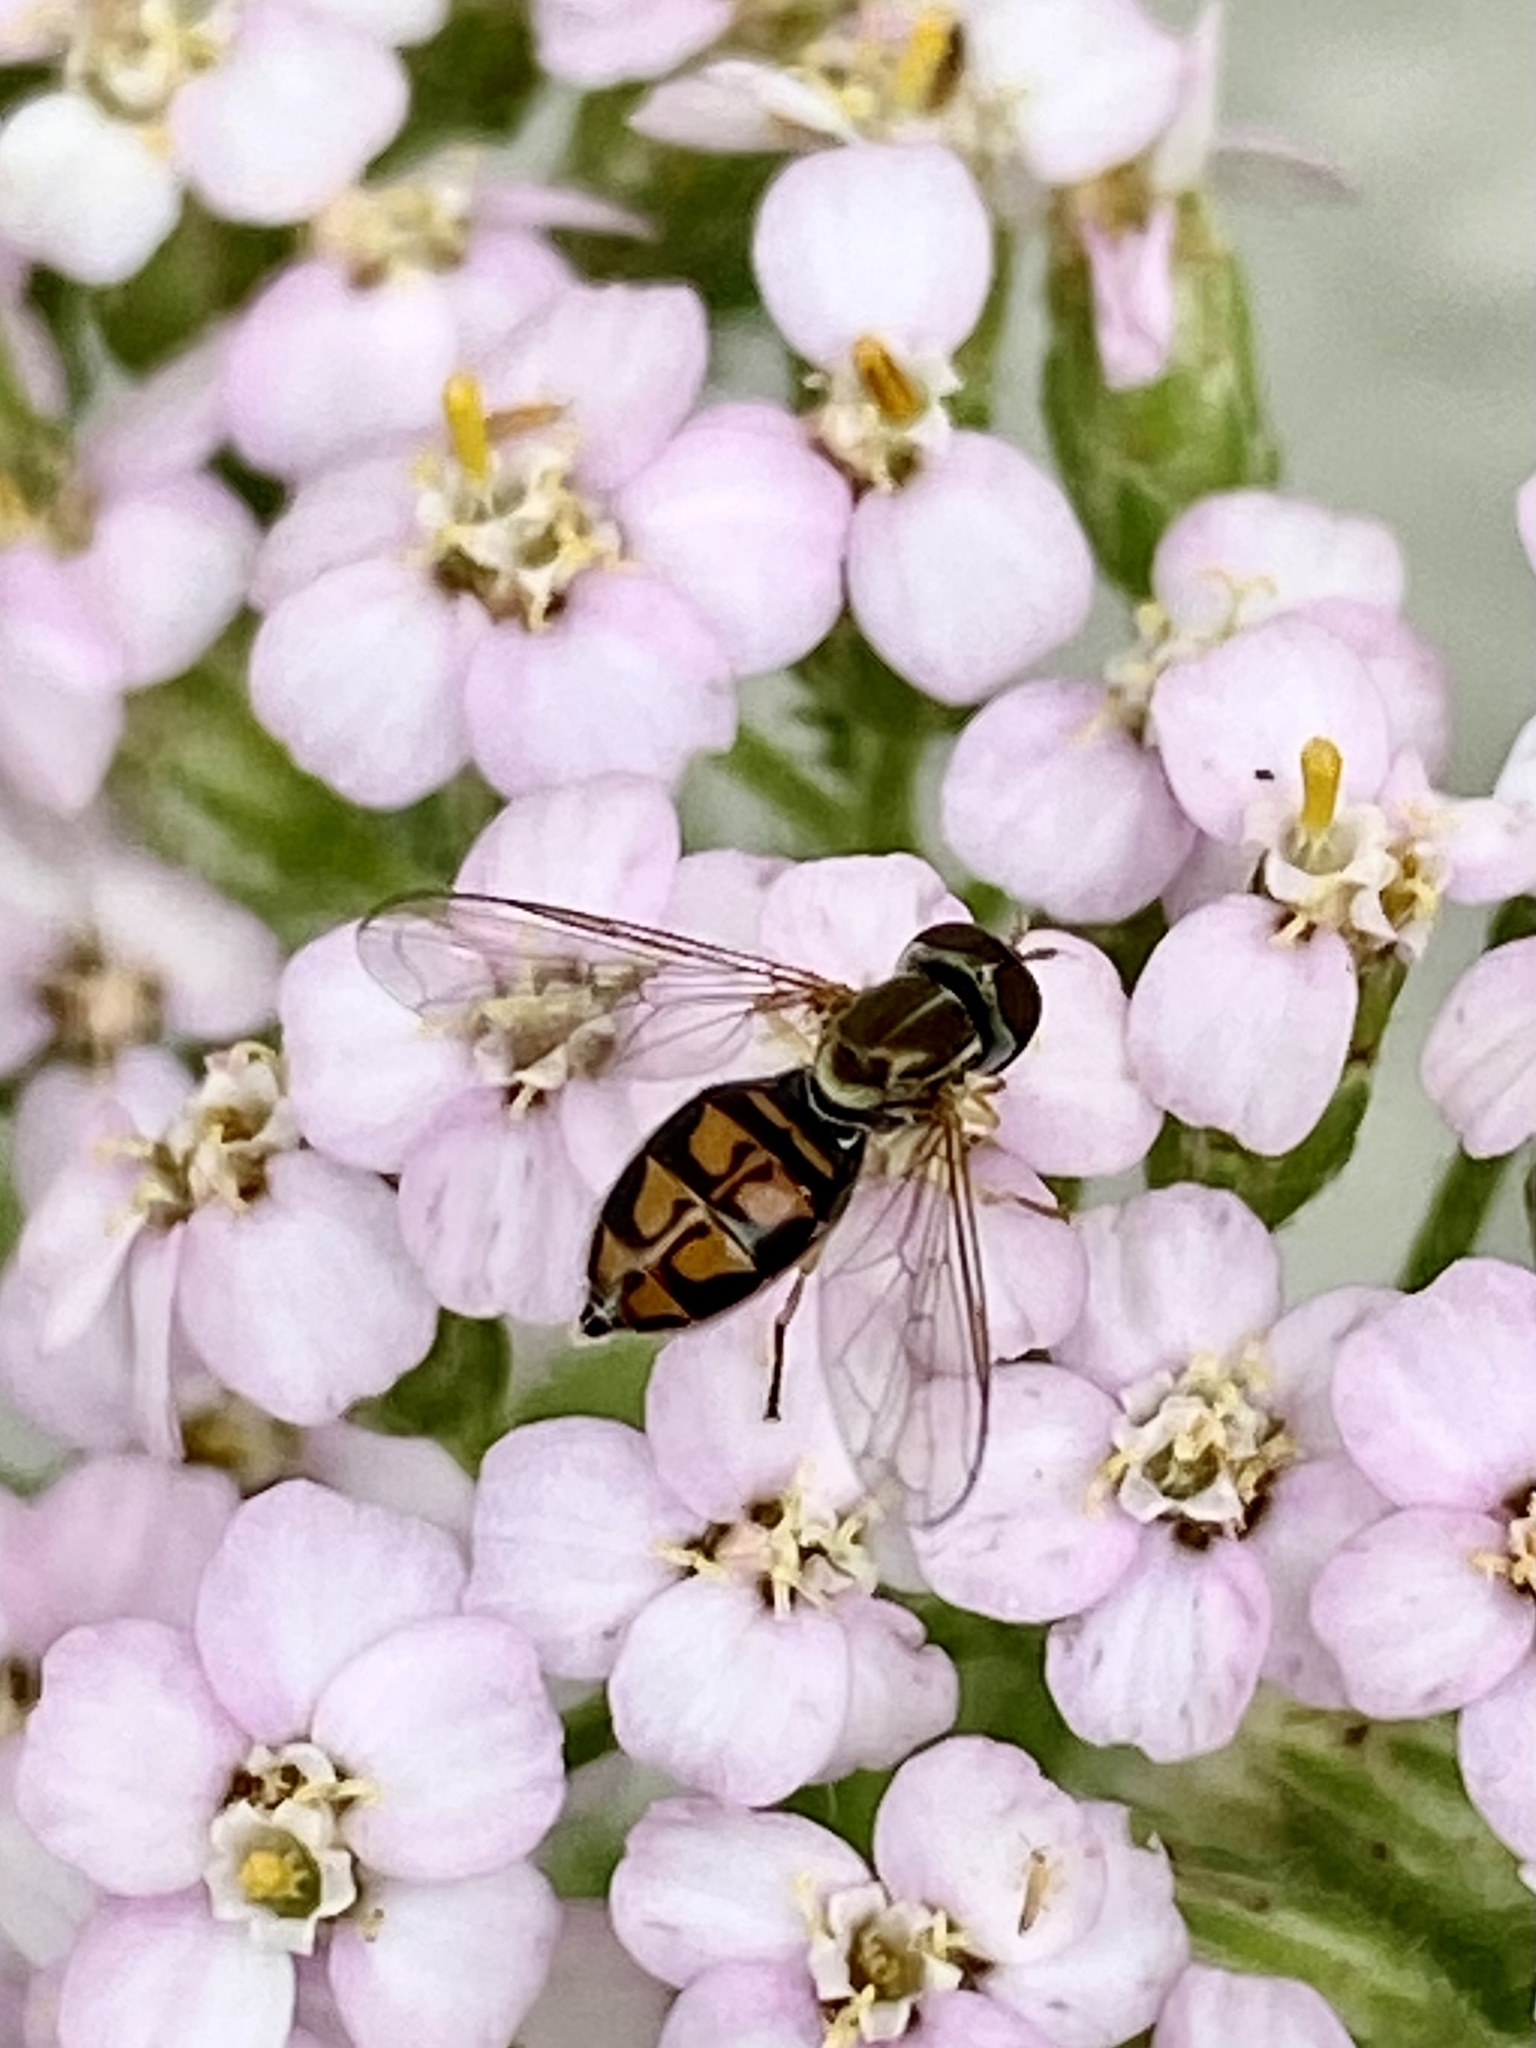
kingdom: Animalia
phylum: Arthropoda
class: Insecta
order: Diptera
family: Syrphidae
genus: Toxomerus
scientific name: Toxomerus marginatus
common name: Syrphid fly
